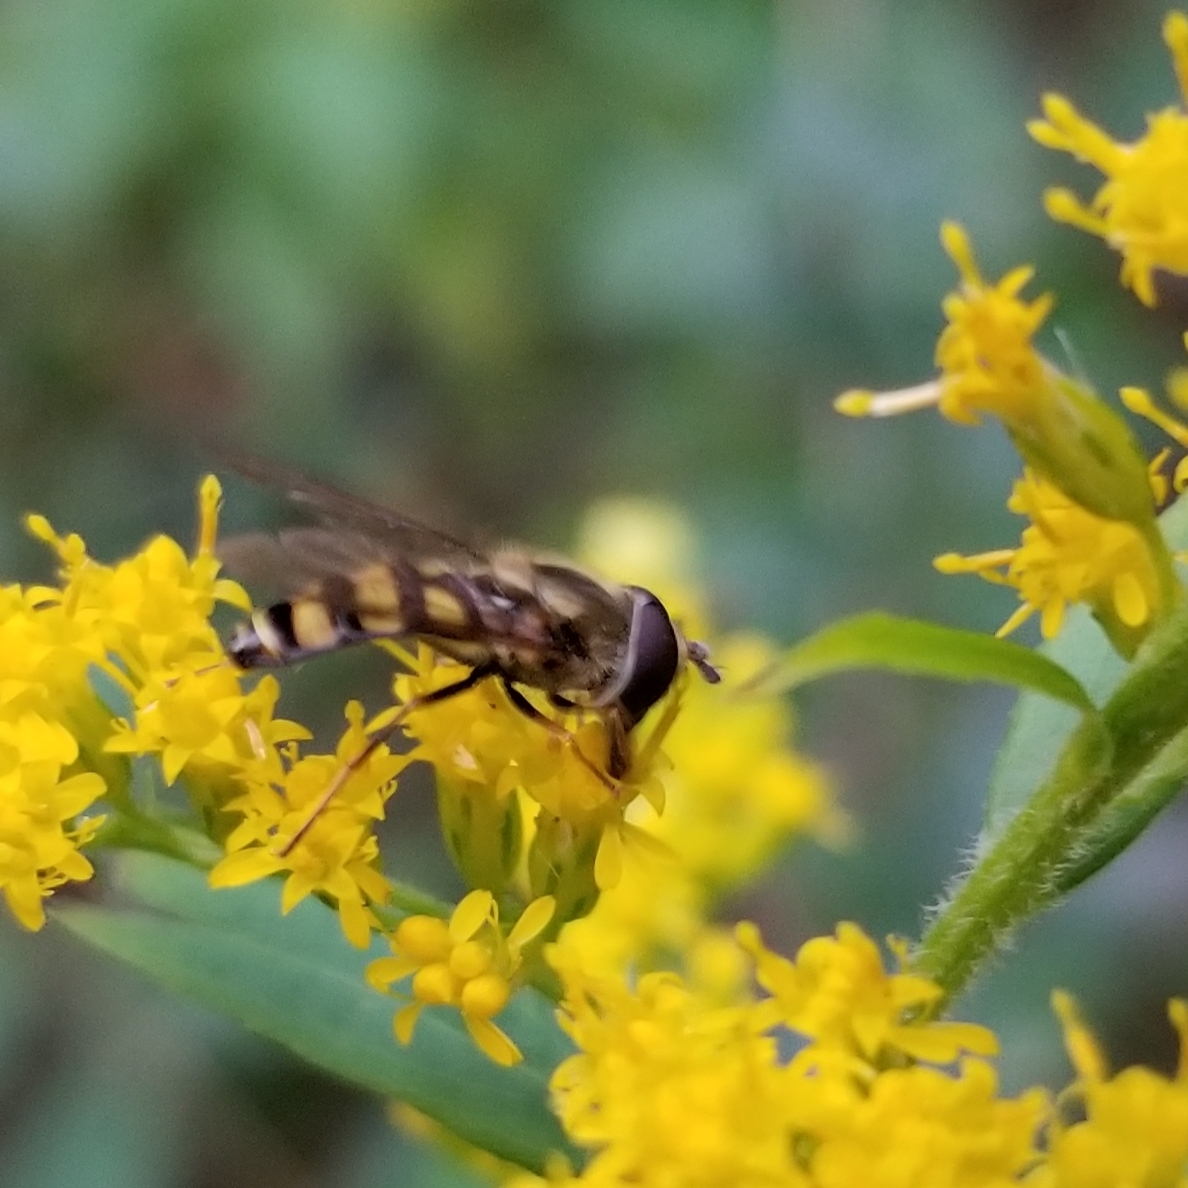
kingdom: Animalia
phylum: Arthropoda
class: Insecta
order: Diptera
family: Syrphidae
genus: Eupeodes
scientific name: Eupeodes
